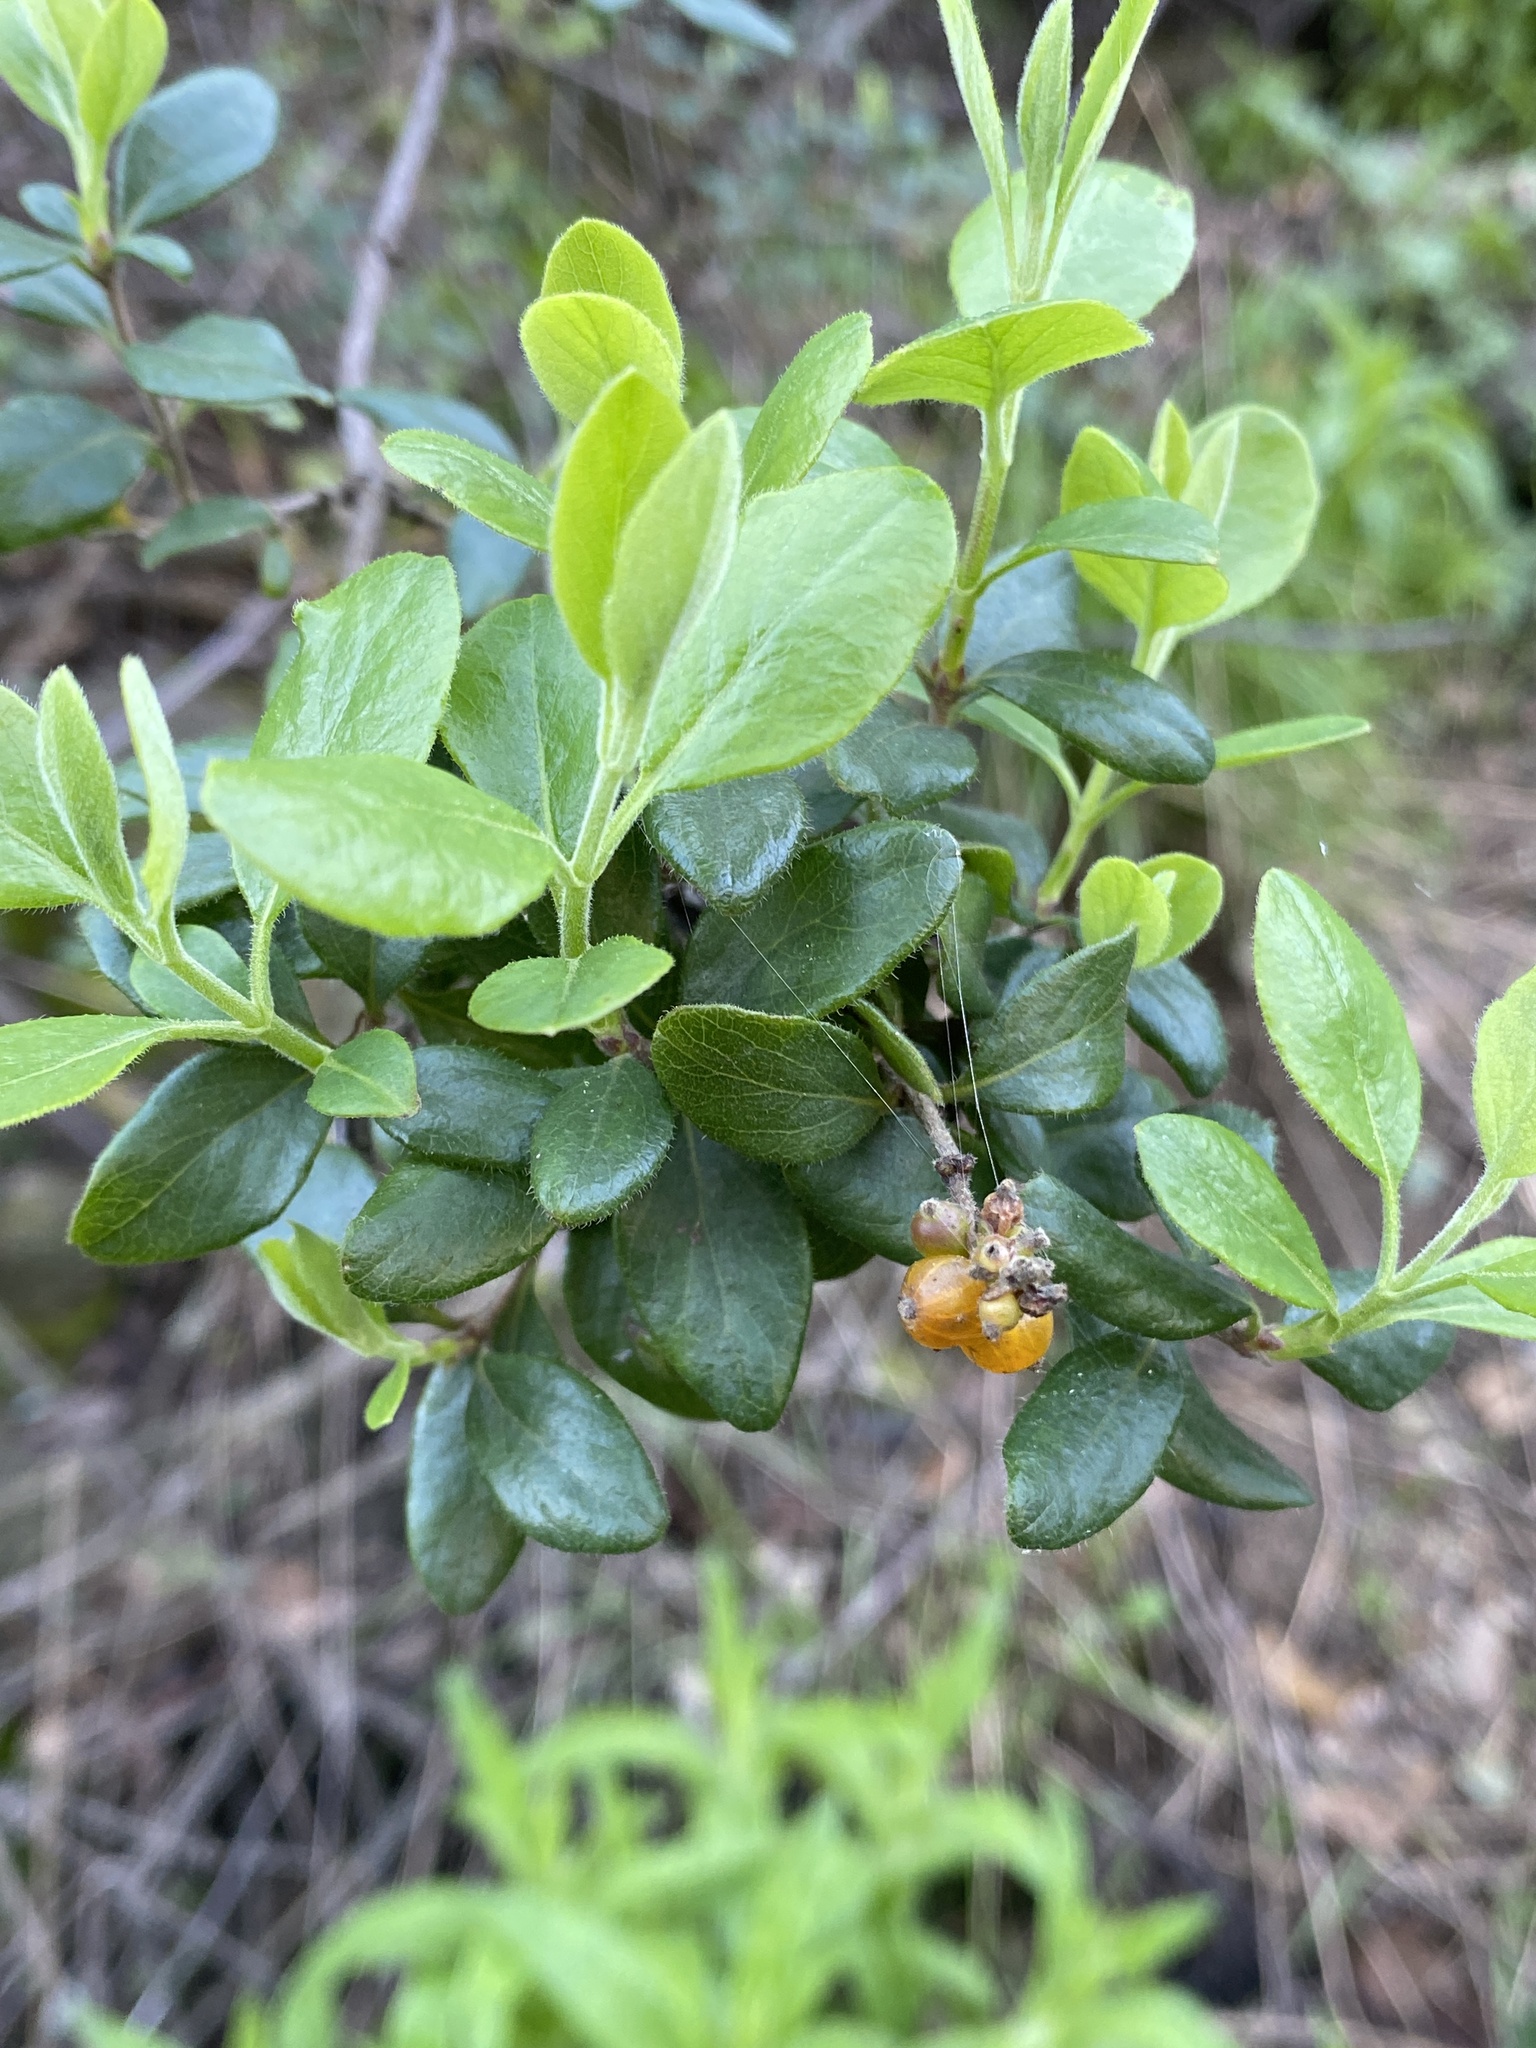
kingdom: Plantae
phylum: Tracheophyta
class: Magnoliopsida
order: Dipsacales
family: Caprifoliaceae
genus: Lonicera
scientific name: Lonicera subspicata
